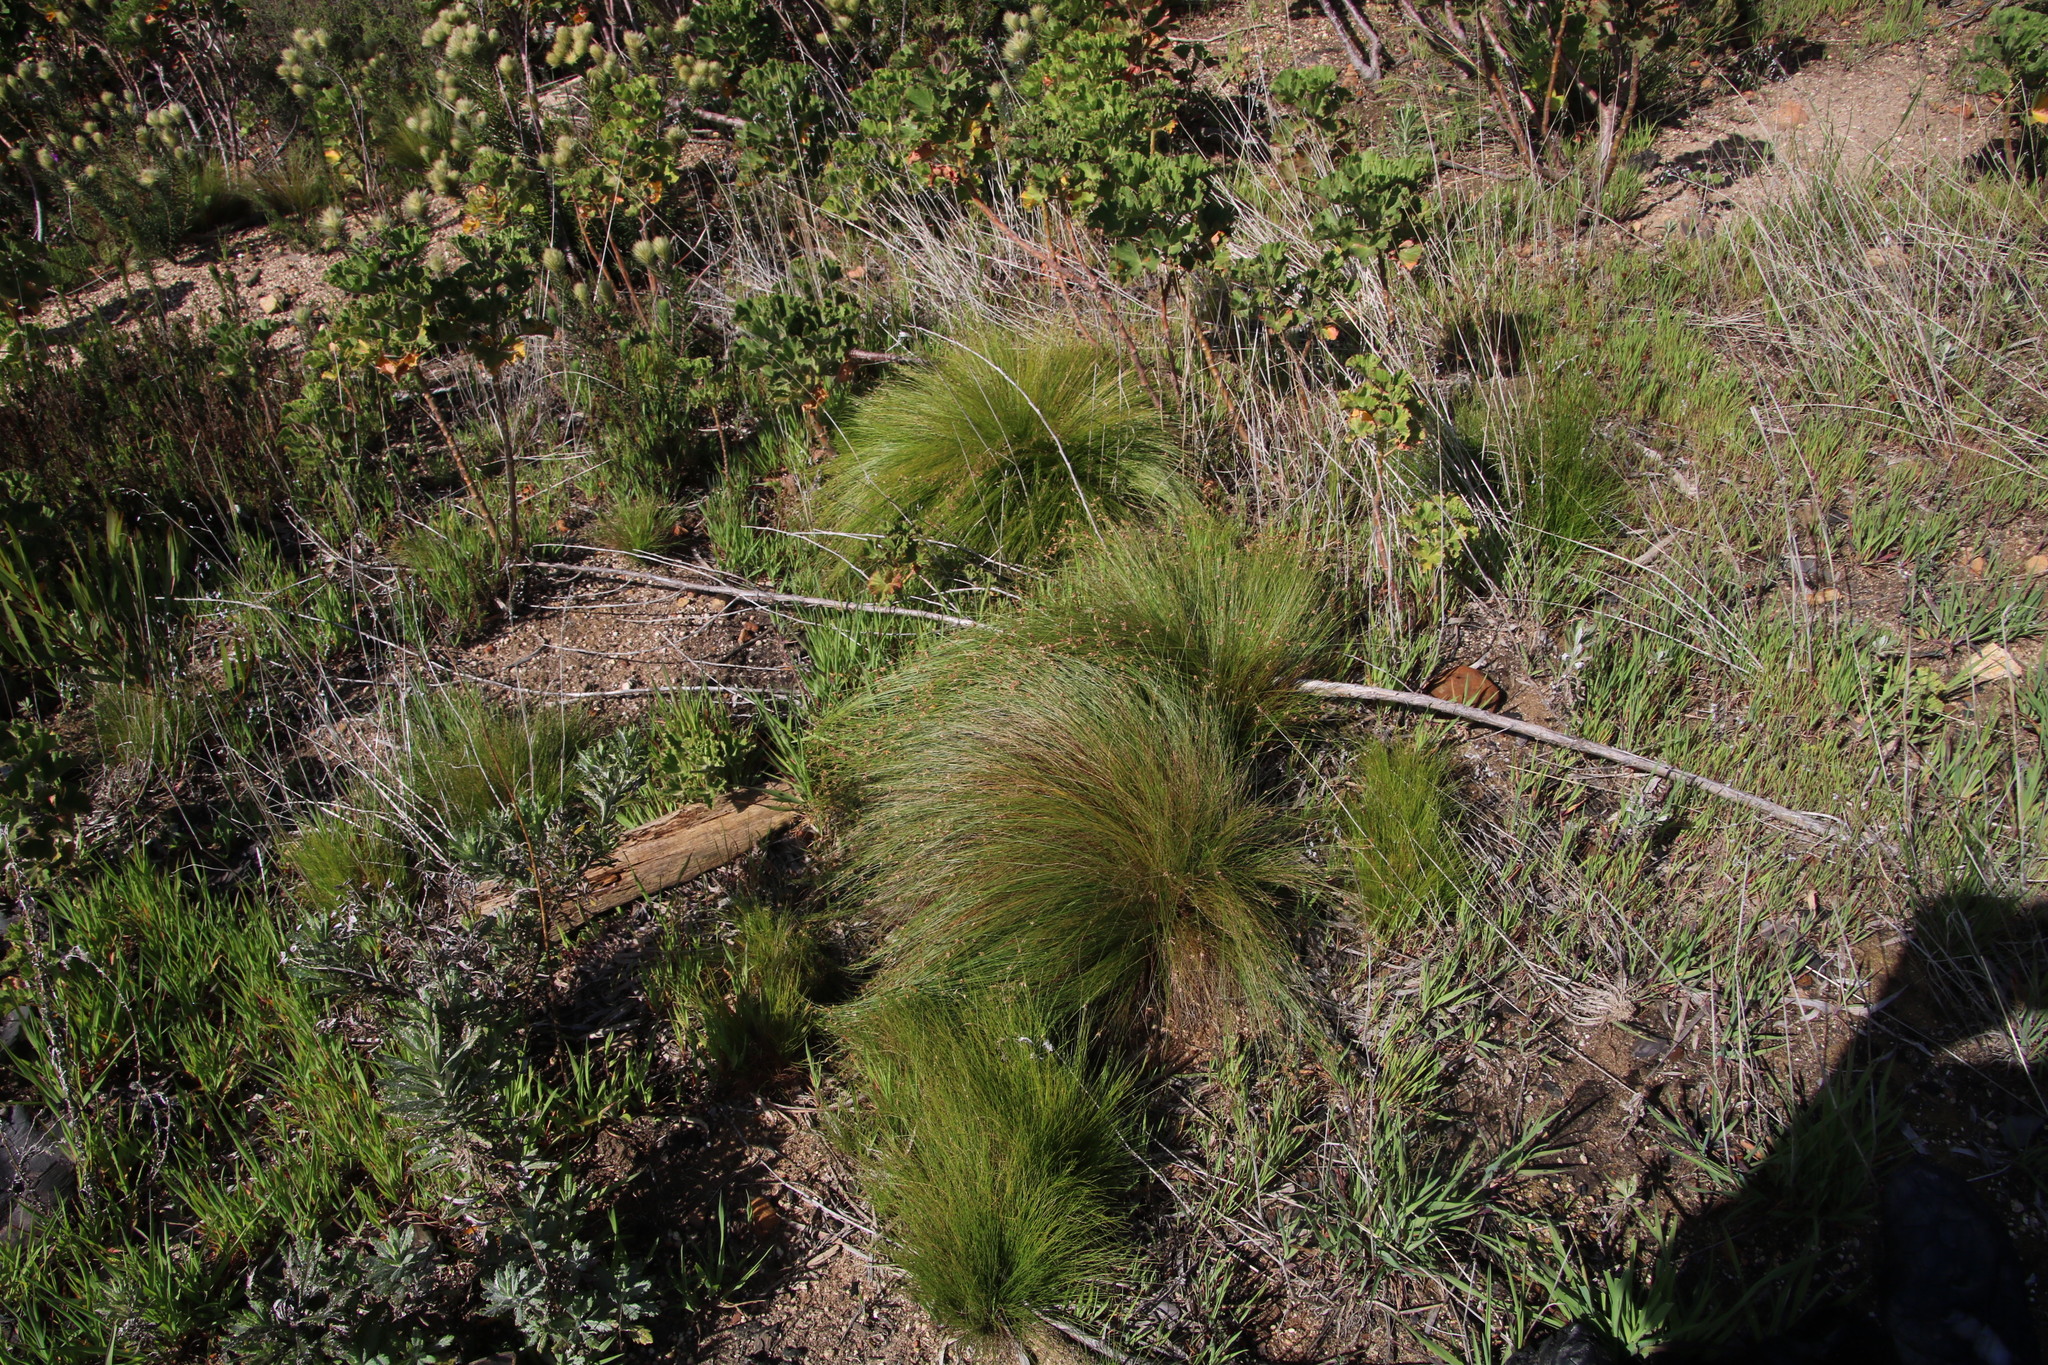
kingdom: Plantae
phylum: Tracheophyta
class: Liliopsida
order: Poales
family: Cyperaceae
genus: Ficinia
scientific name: Ficinia acuminata
